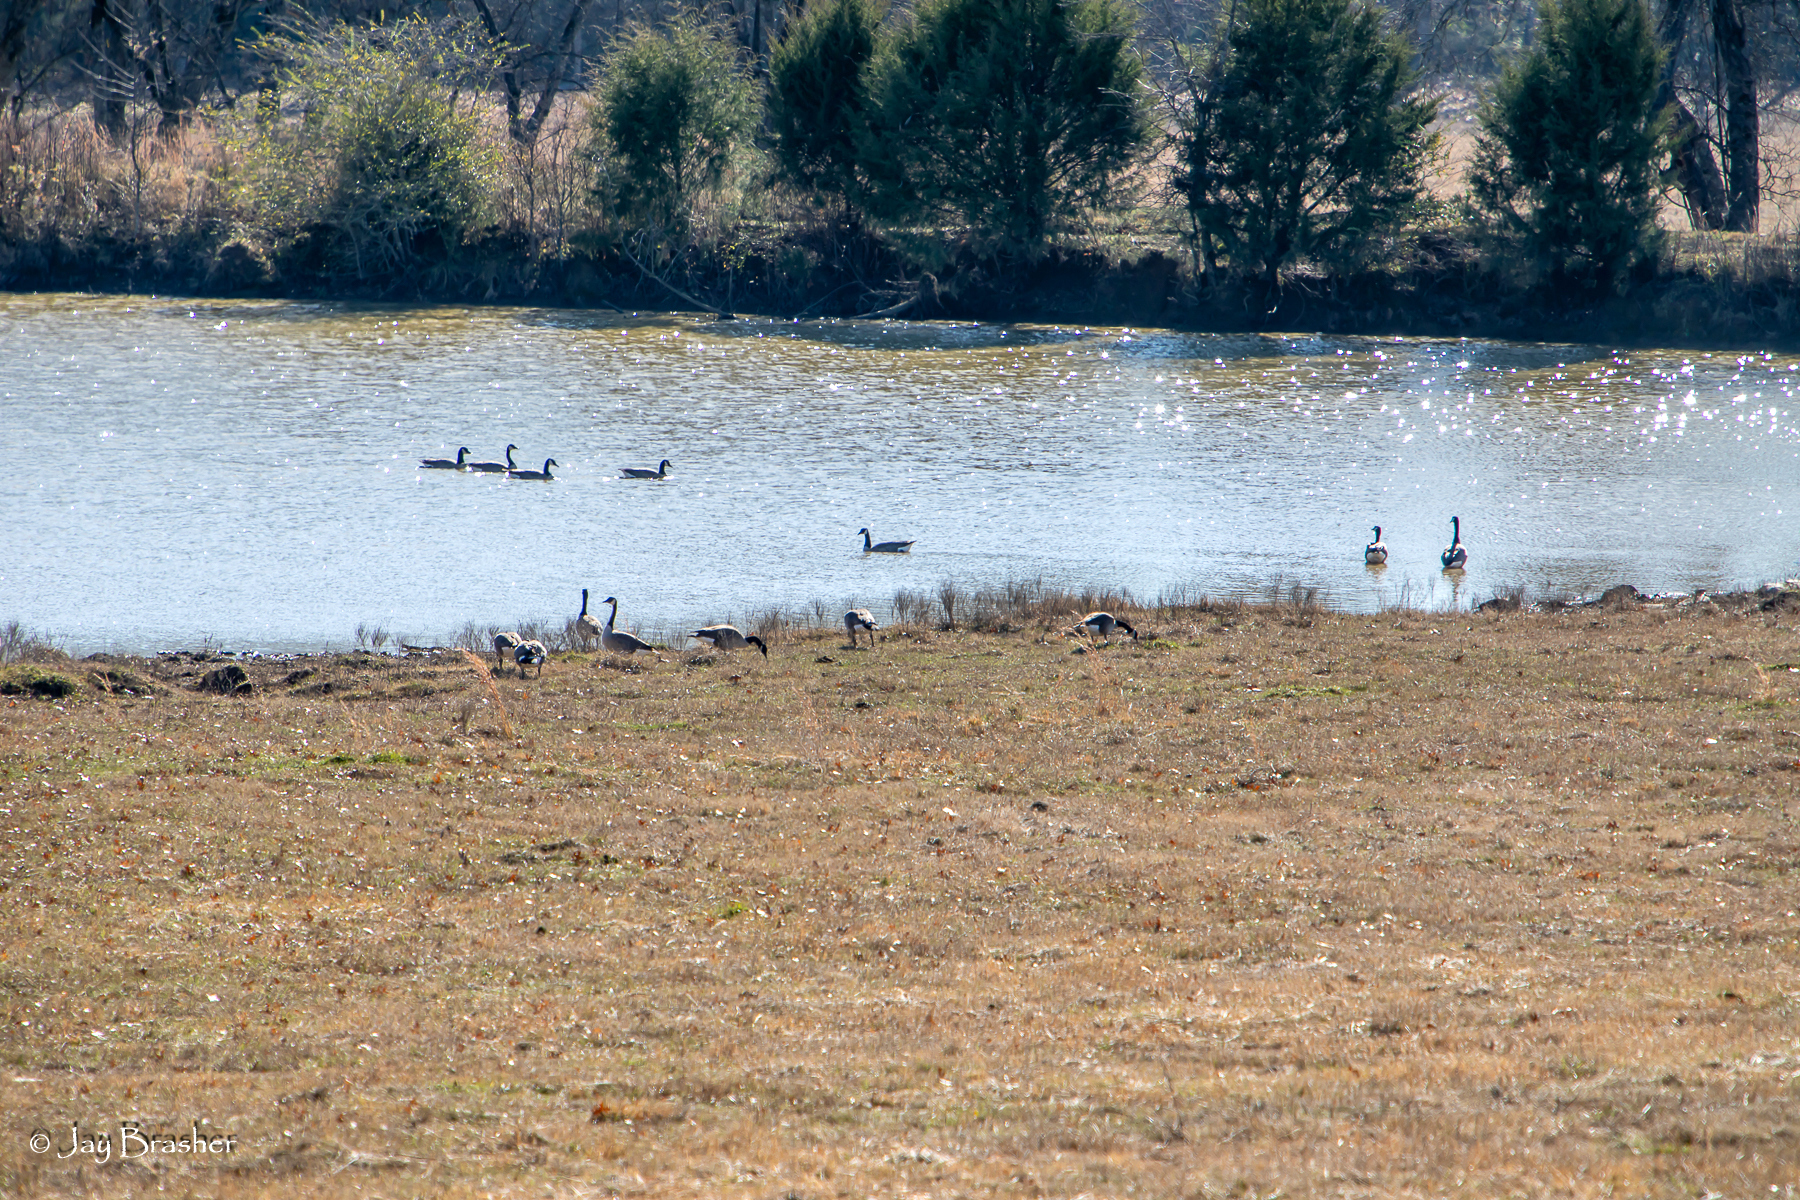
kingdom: Animalia
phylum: Chordata
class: Aves
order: Anseriformes
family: Anatidae
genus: Branta
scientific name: Branta canadensis
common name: Canada goose
